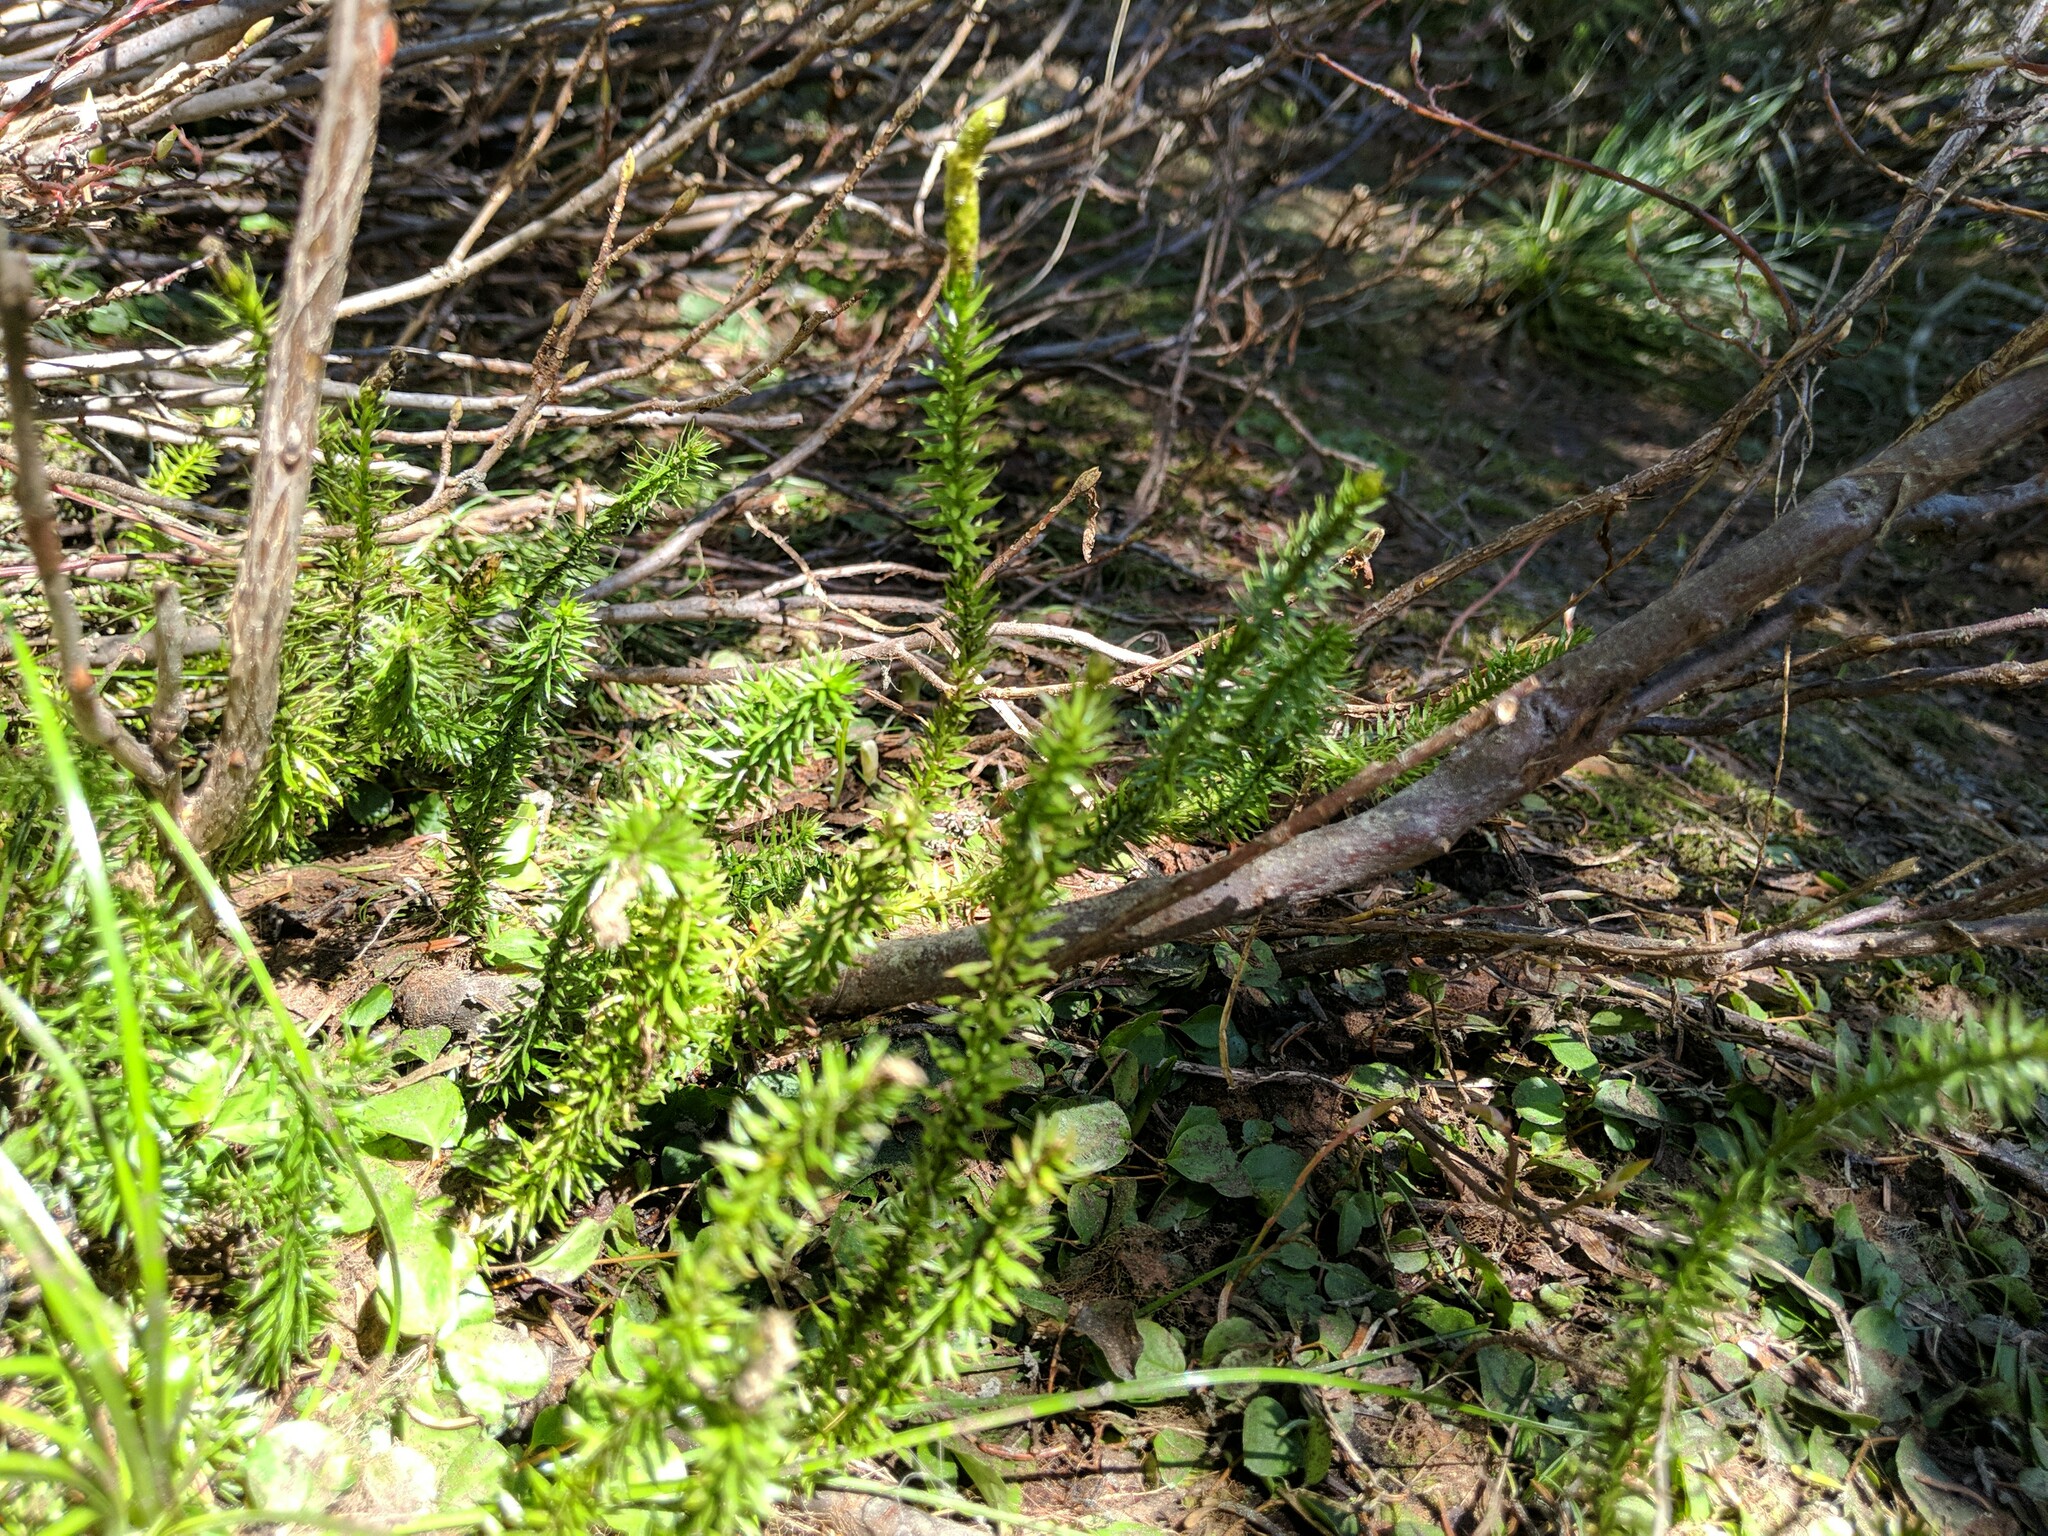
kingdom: Plantae
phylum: Tracheophyta
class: Lycopodiopsida
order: Lycopodiales
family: Lycopodiaceae
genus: Spinulum
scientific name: Spinulum annotinum
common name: Interrupted club-moss
